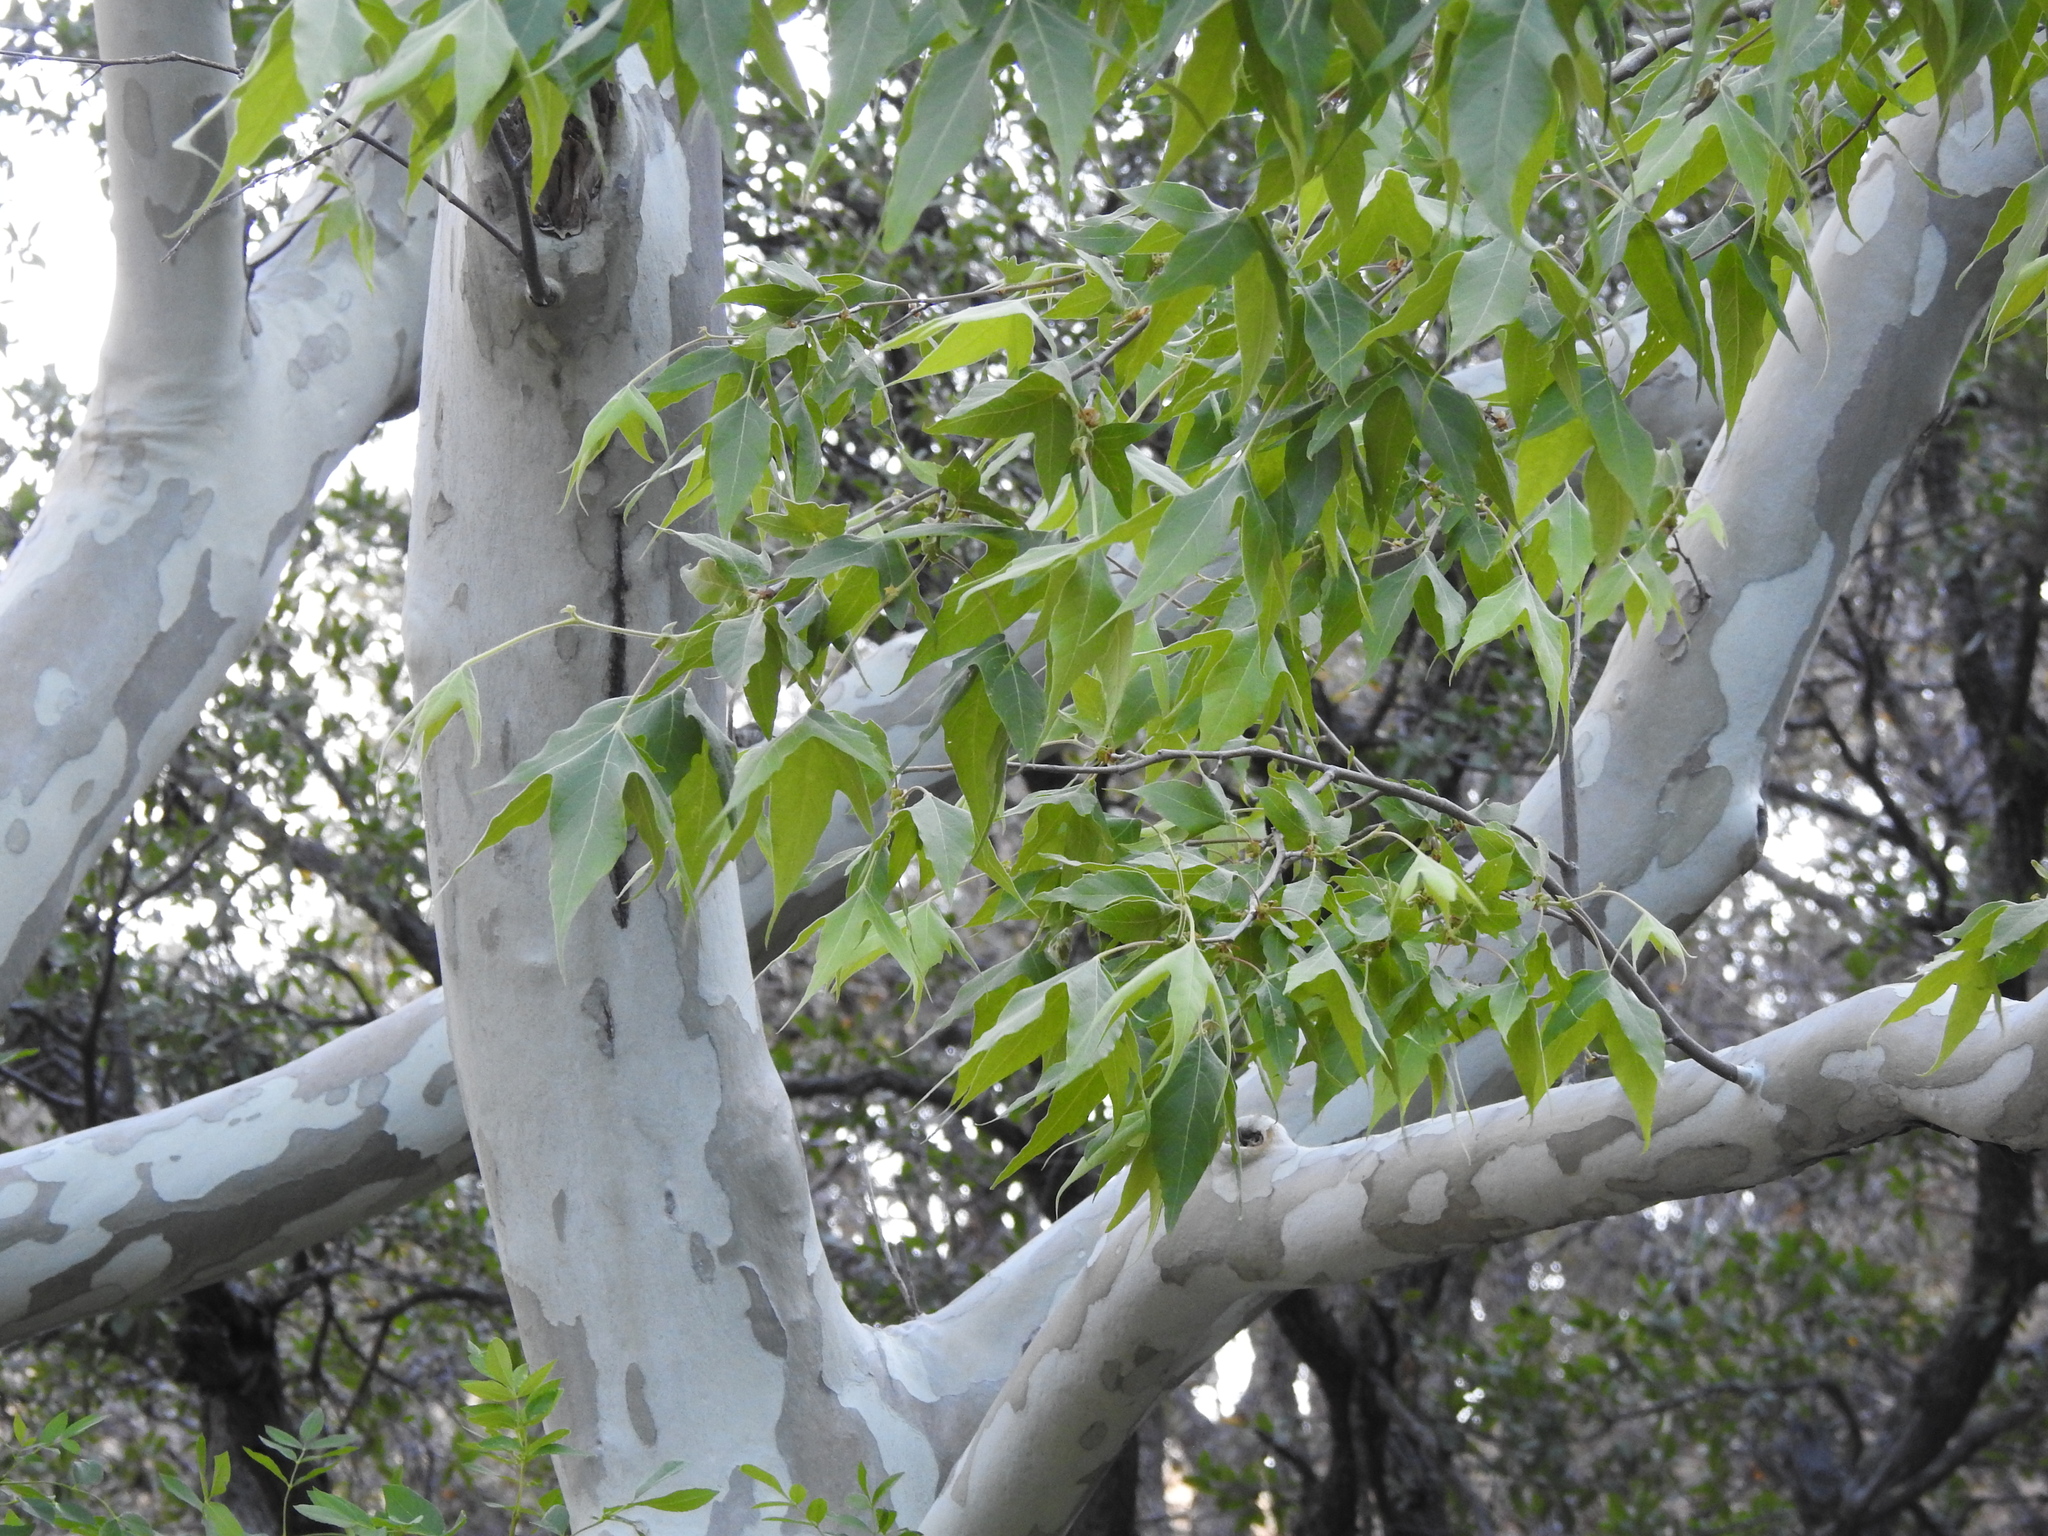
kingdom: Plantae
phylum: Tracheophyta
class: Magnoliopsida
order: Proteales
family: Platanaceae
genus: Platanus
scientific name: Platanus wrightii
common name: Arizona sycamore
